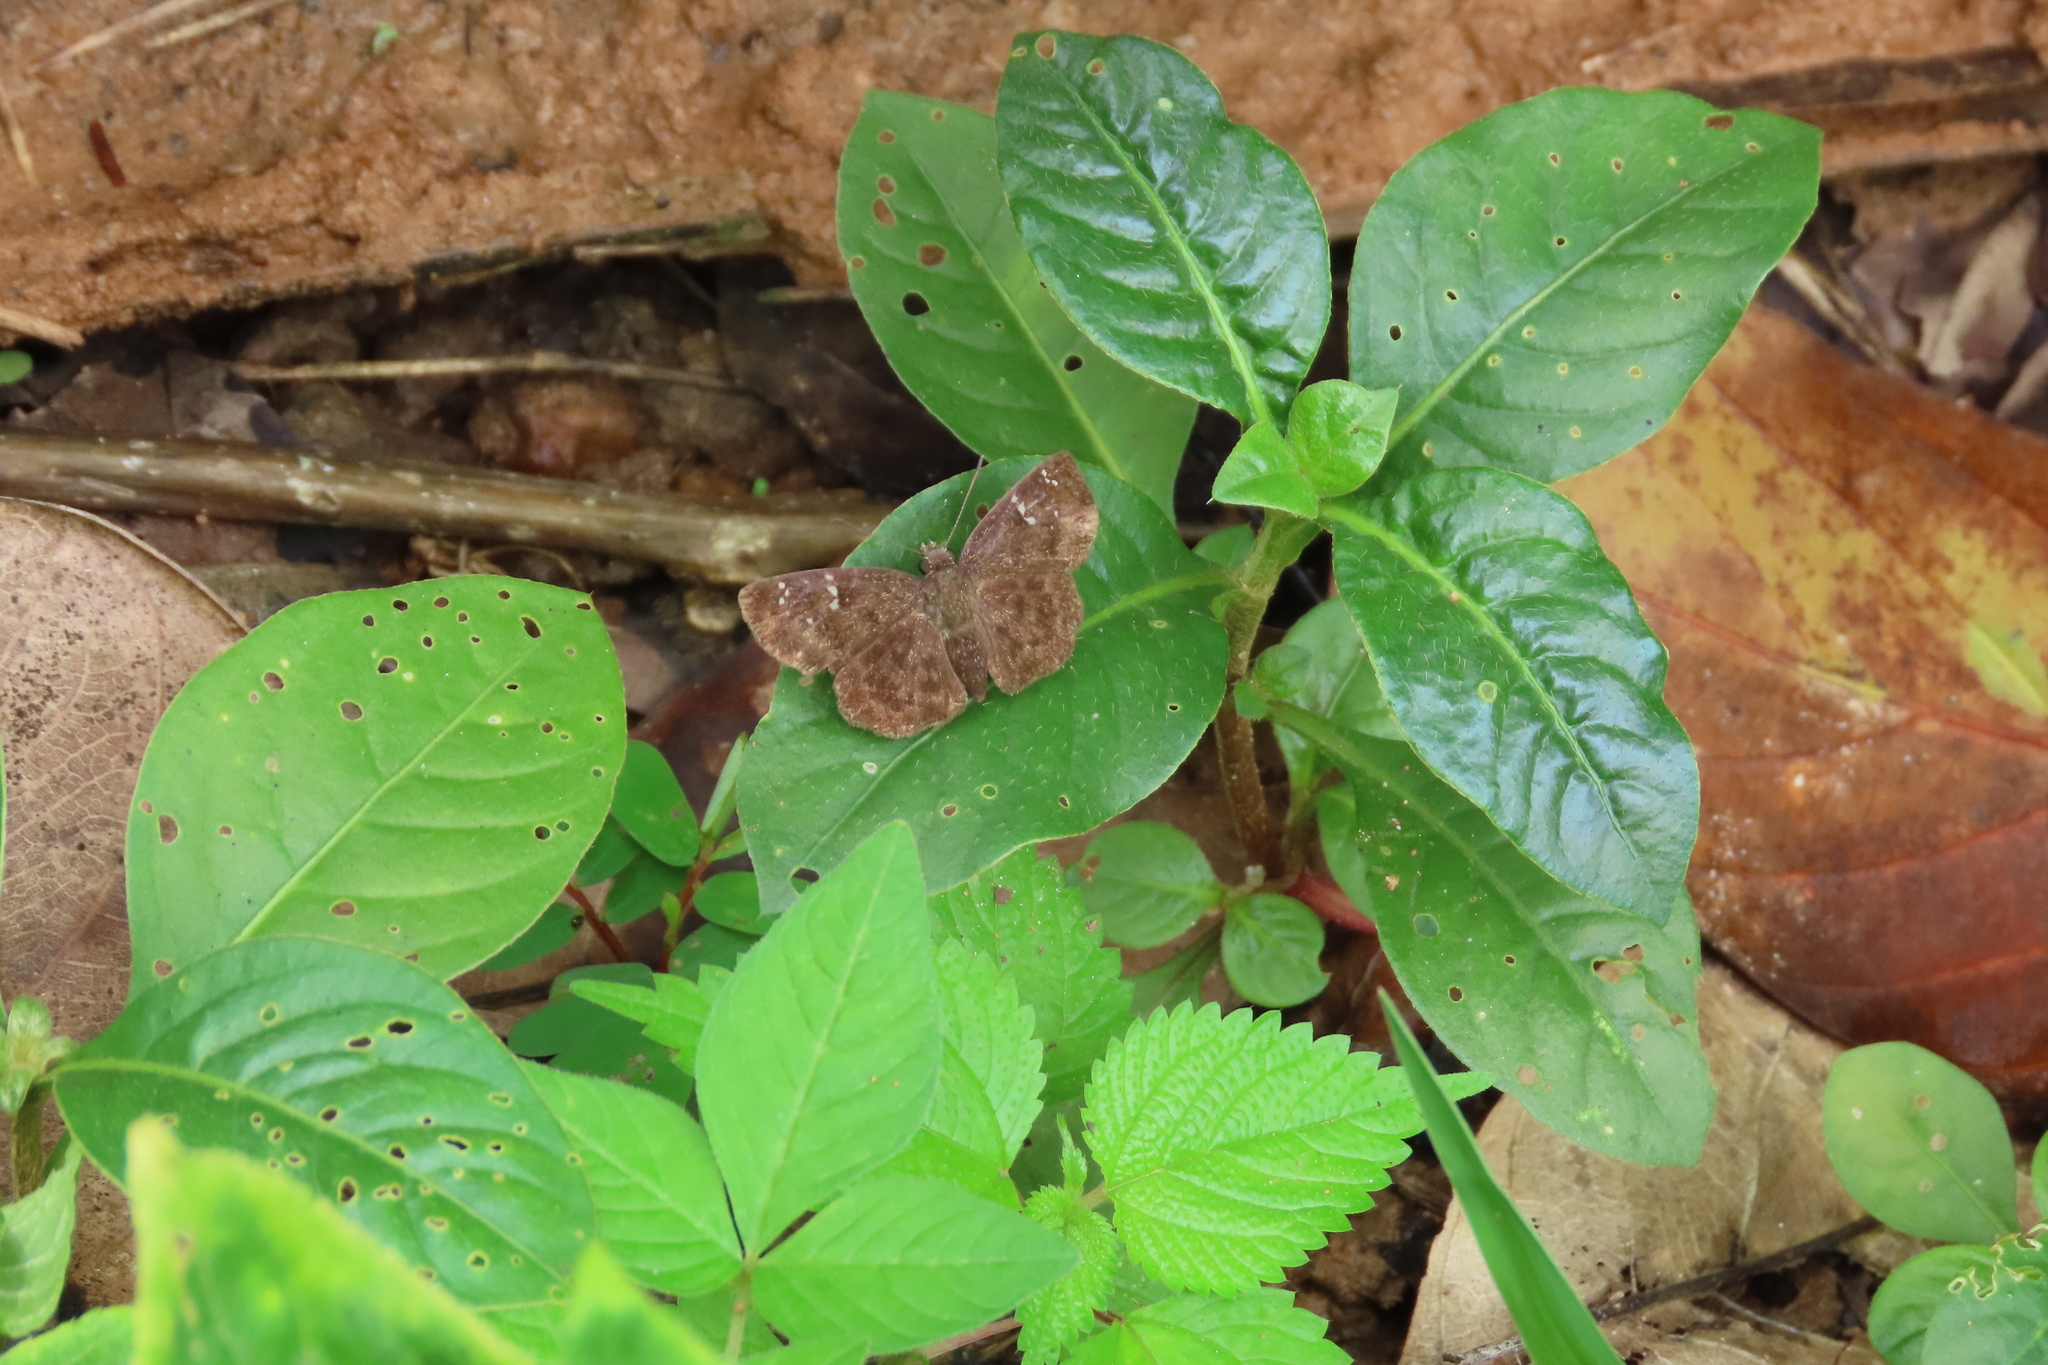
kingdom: Animalia
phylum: Arthropoda
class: Insecta
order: Lepidoptera
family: Hesperiidae
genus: Sarangesa
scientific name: Sarangesa dasahara
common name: Common small flat
